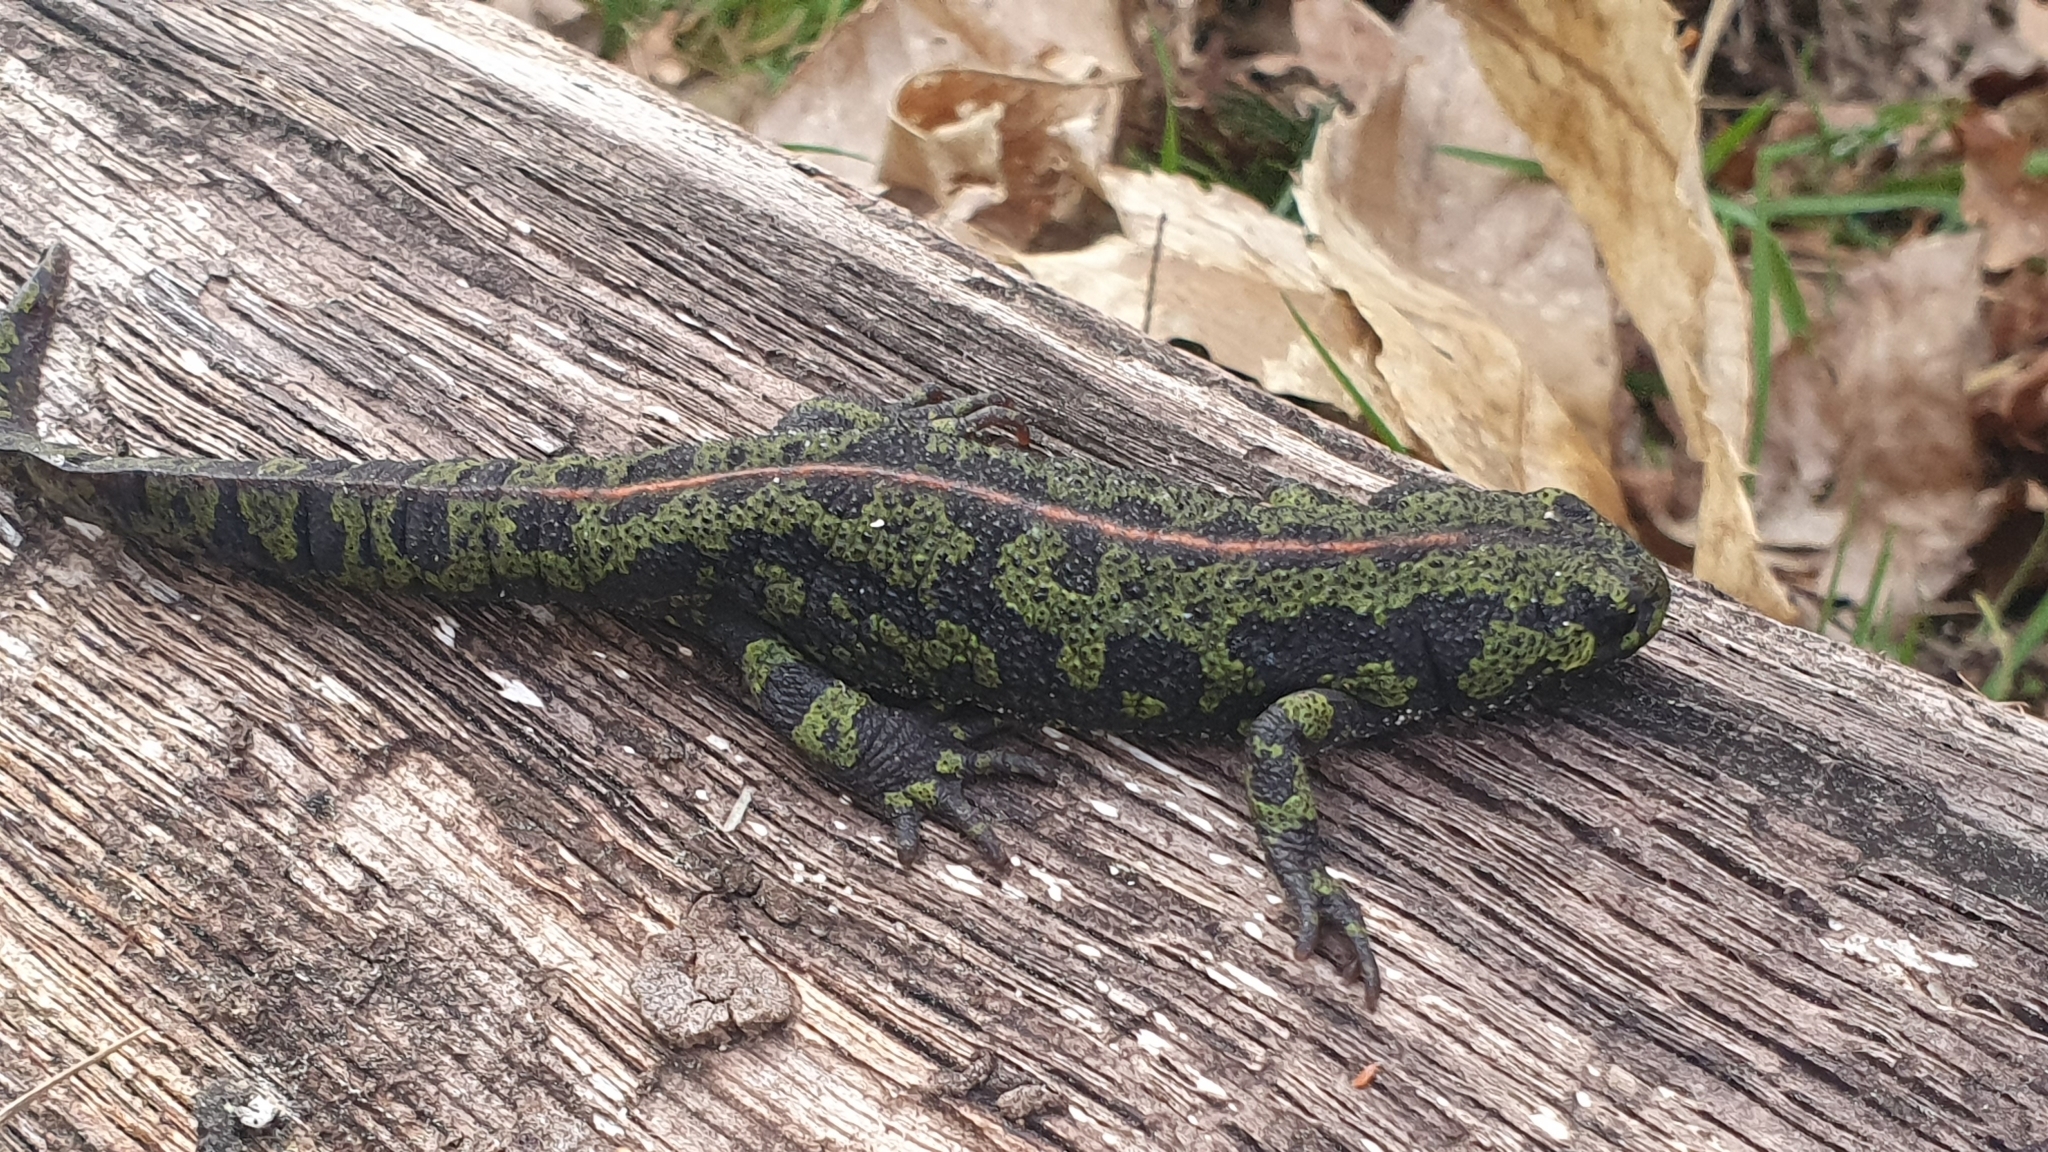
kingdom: Animalia
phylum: Chordata
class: Amphibia
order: Caudata
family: Salamandridae
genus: Triturus
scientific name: Triturus marmoratus
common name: Marbled newt
